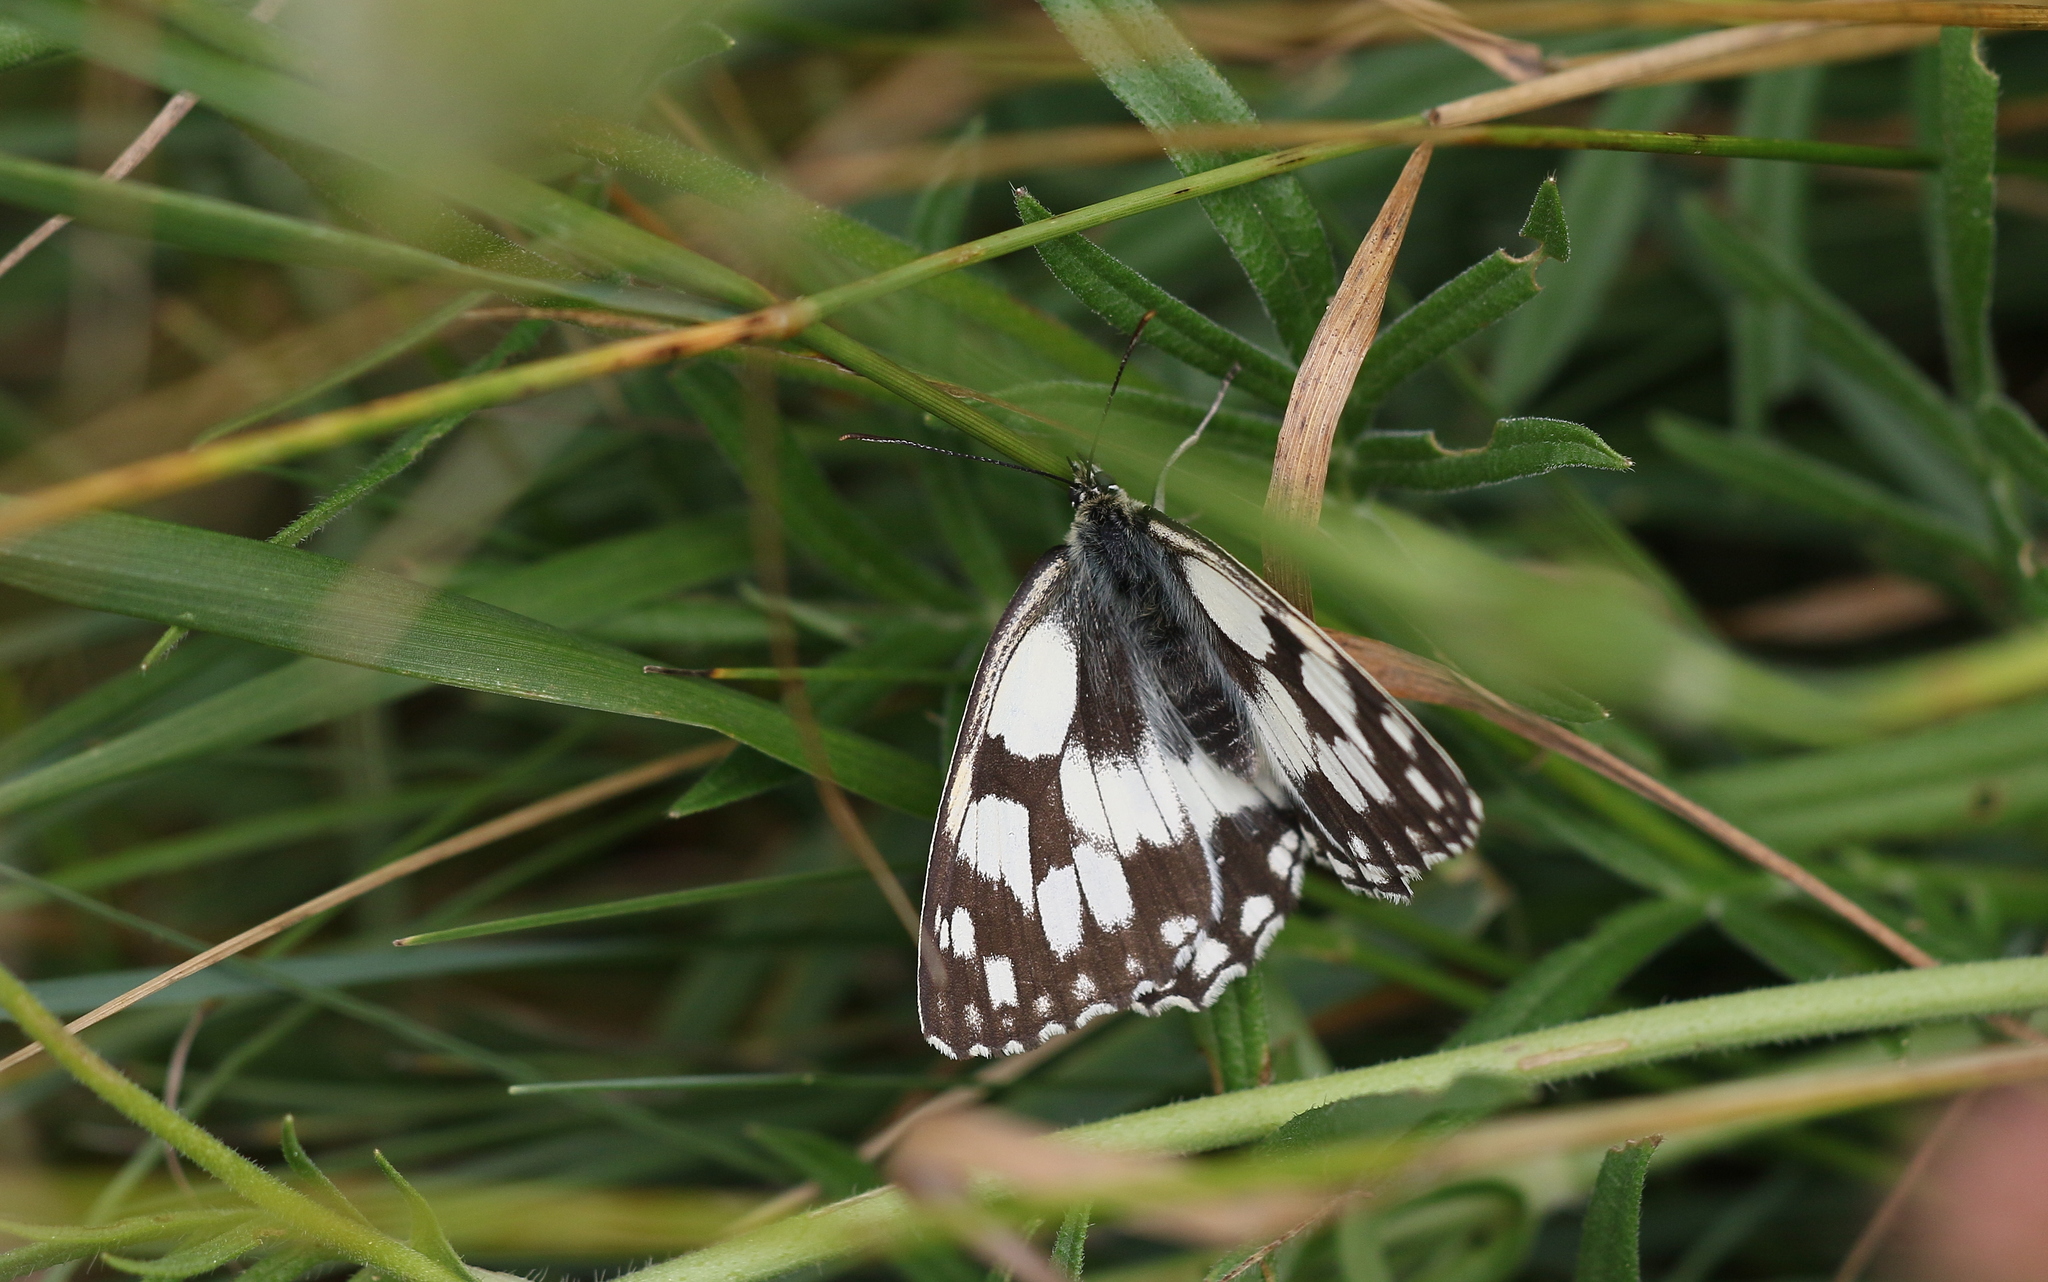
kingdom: Animalia
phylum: Arthropoda
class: Insecta
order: Lepidoptera
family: Nymphalidae
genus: Melanargia
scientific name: Melanargia galathea
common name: Marbled white
